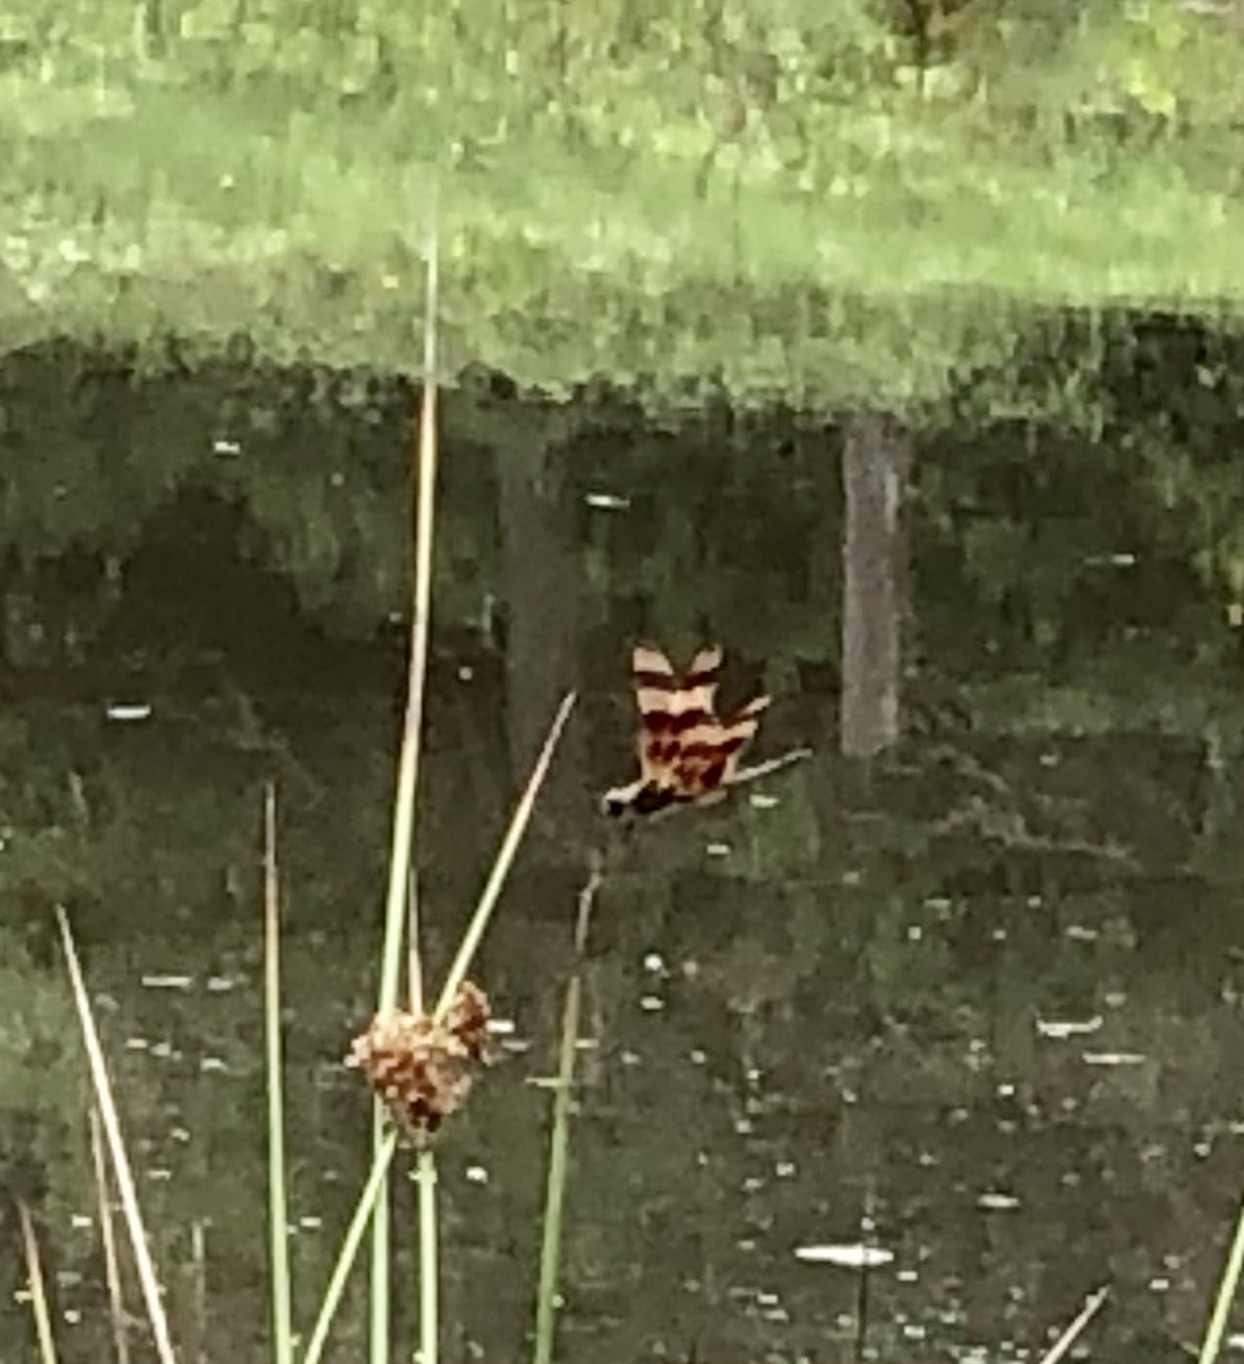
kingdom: Animalia
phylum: Arthropoda
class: Insecta
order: Odonata
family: Libellulidae
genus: Celithemis
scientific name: Celithemis eponina
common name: Halloween pennant
